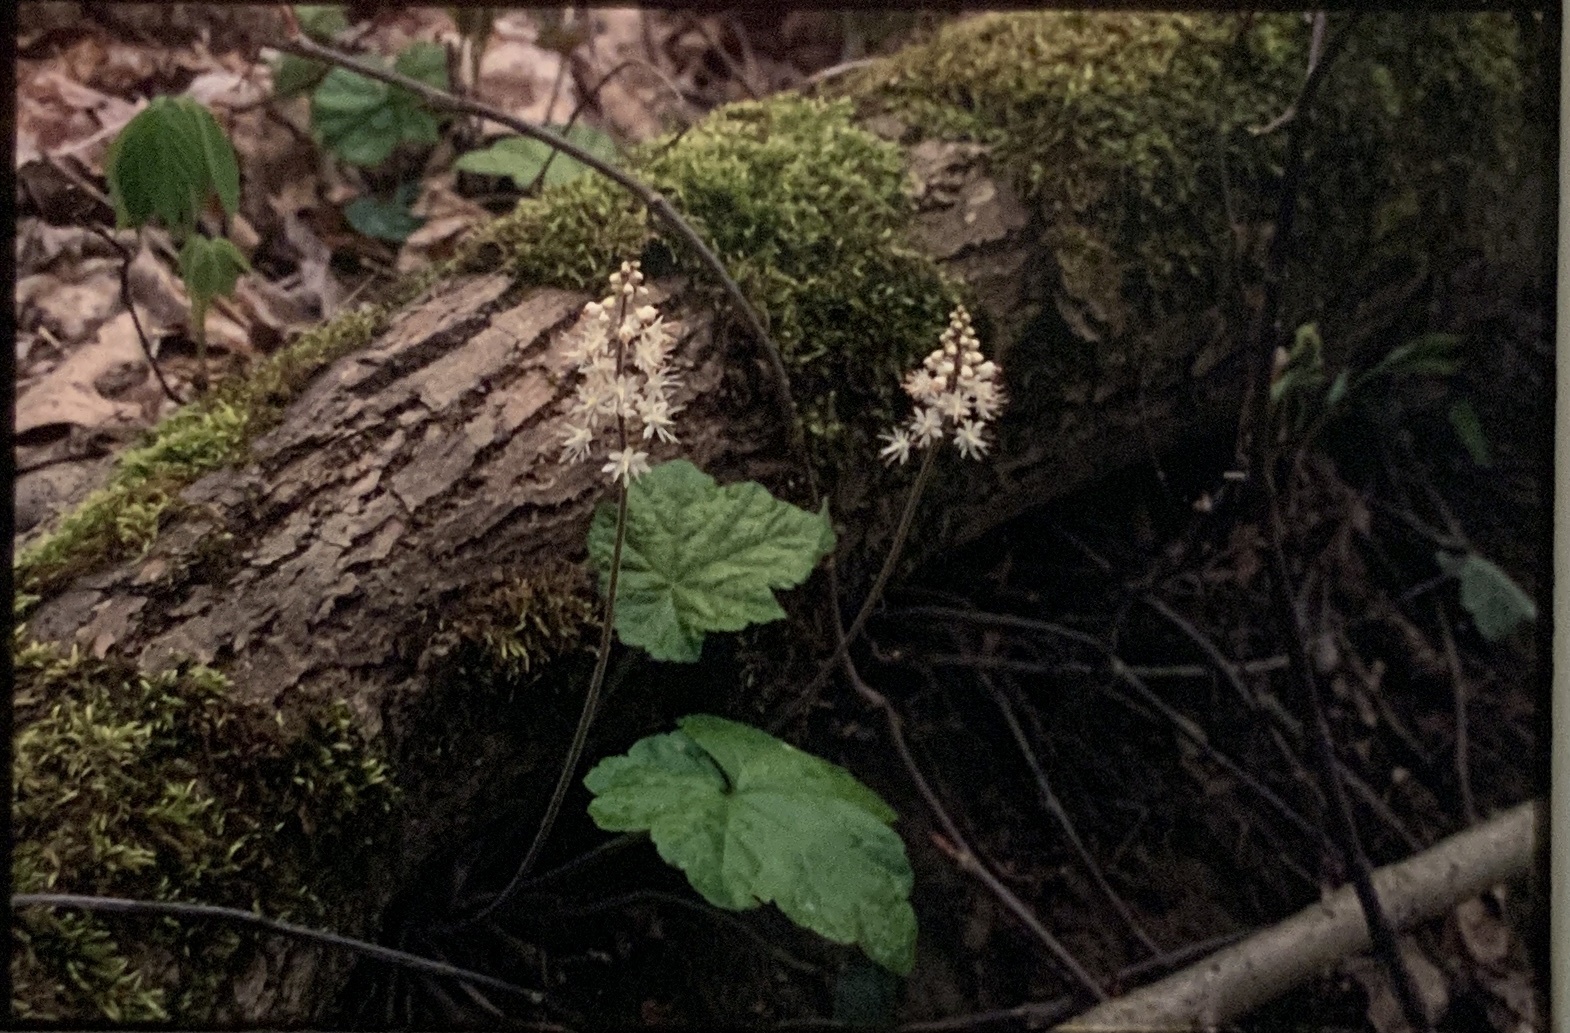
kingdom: Plantae
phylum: Tracheophyta
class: Magnoliopsida
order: Saxifragales
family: Saxifragaceae
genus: Tiarella
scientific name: Tiarella stolonifera
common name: Stoloniferous foamflower
